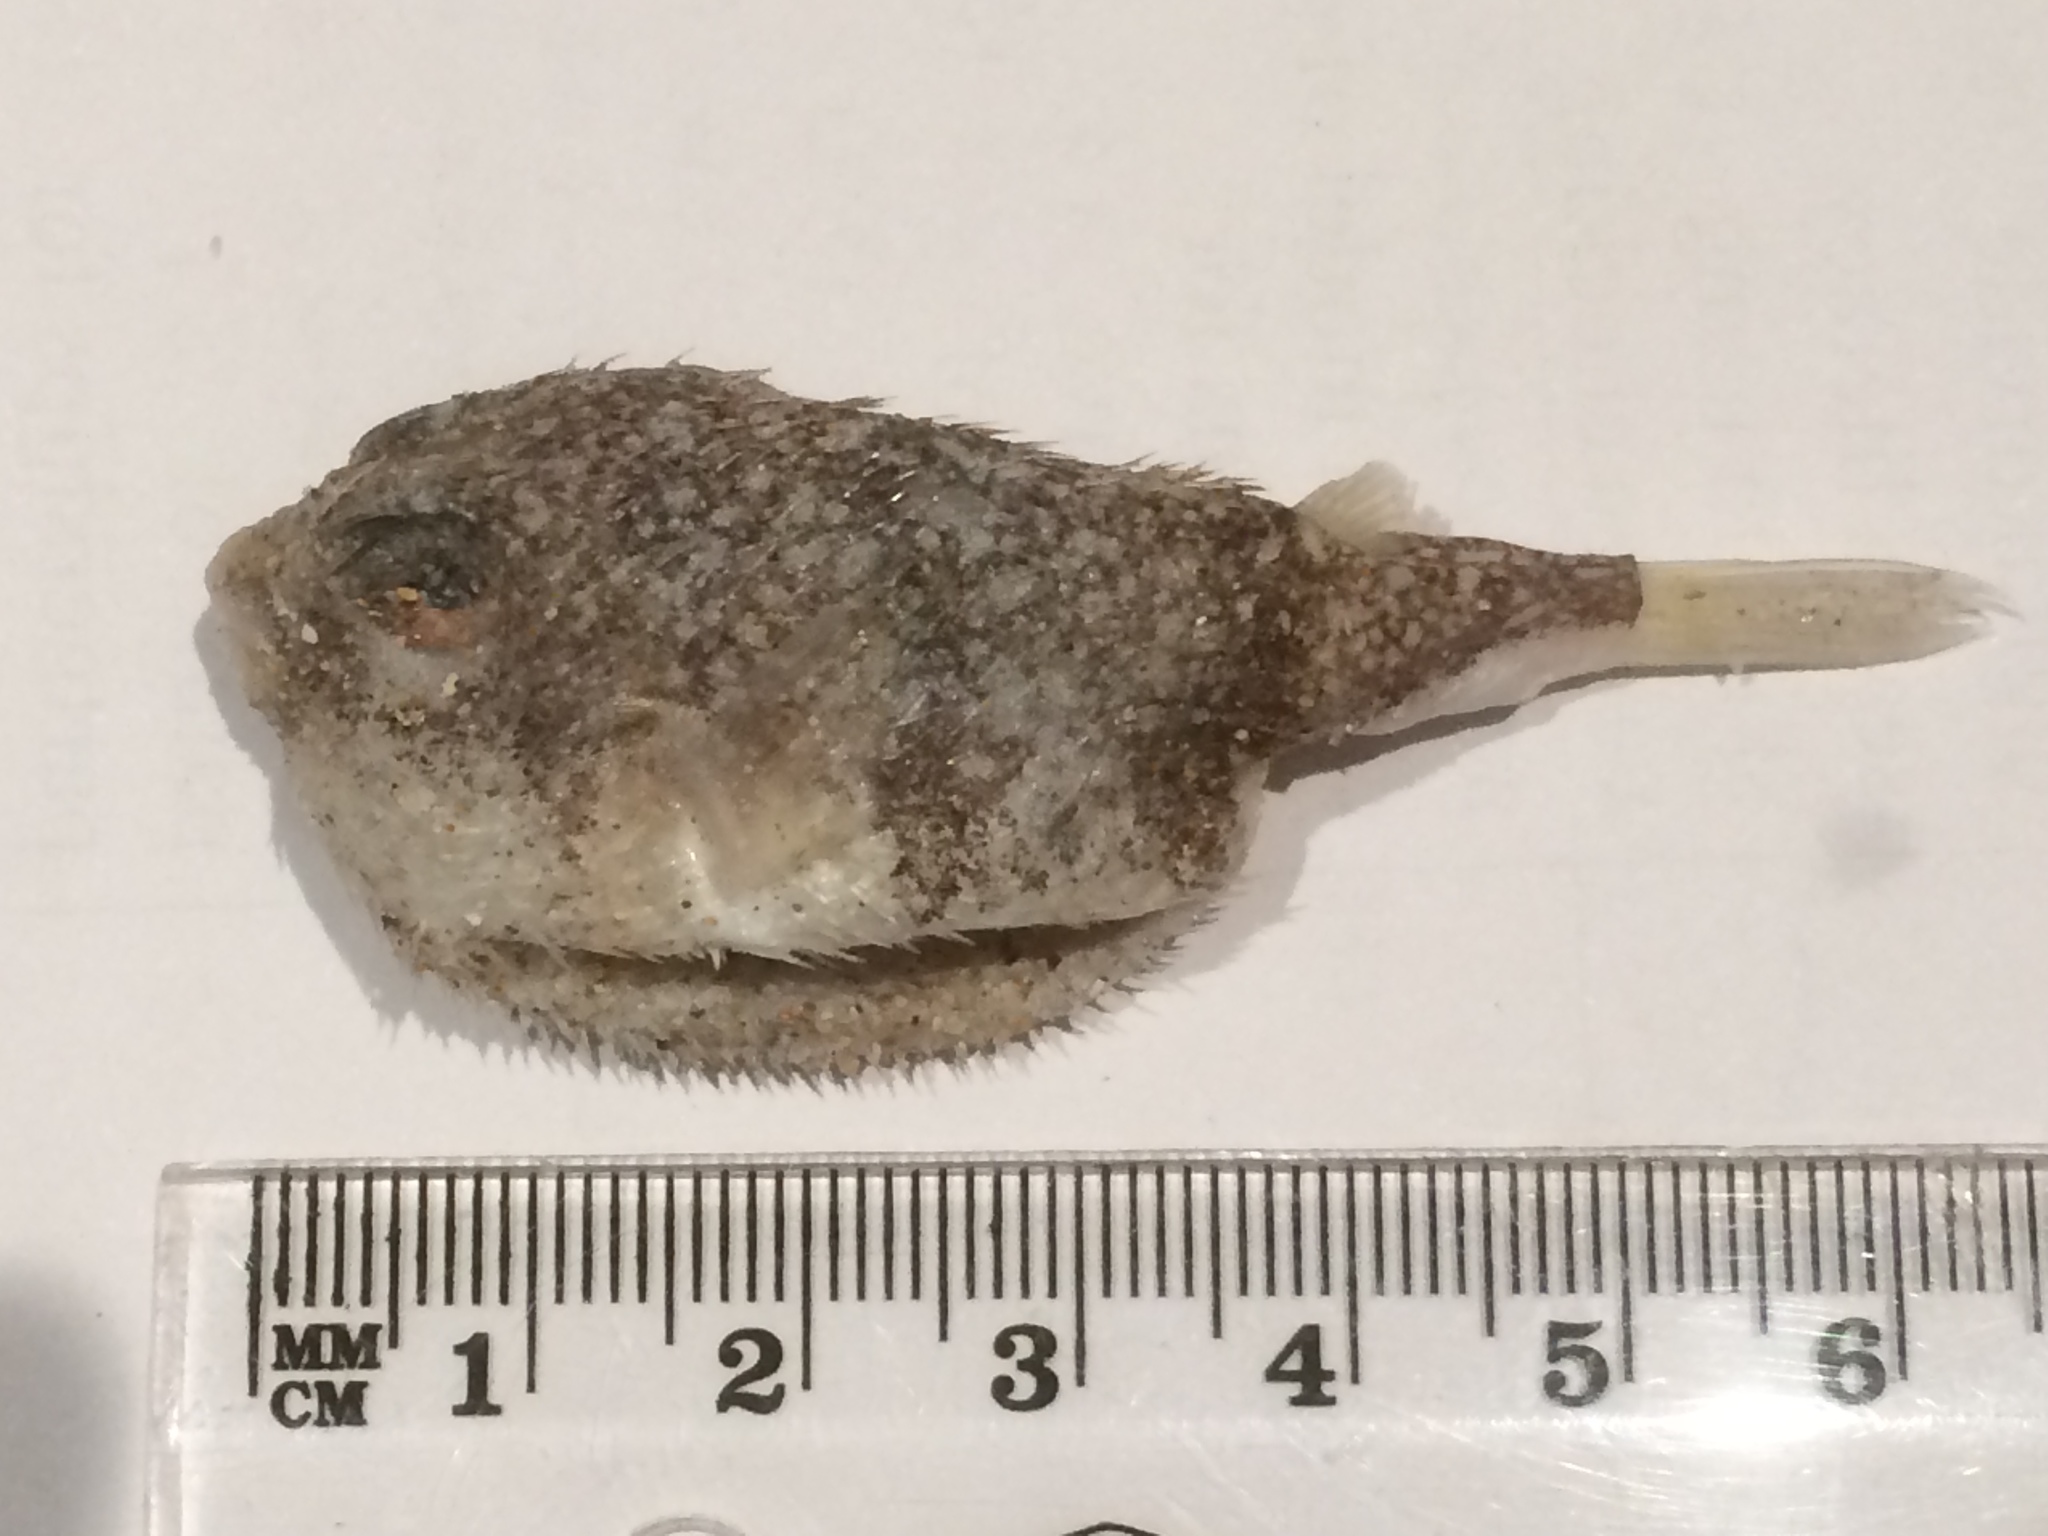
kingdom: Animalia
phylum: Chordata
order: Tetraodontiformes
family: Tetraodontidae
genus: Polyspina
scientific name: Polyspina piosae
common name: Orange-barred pufferfish
